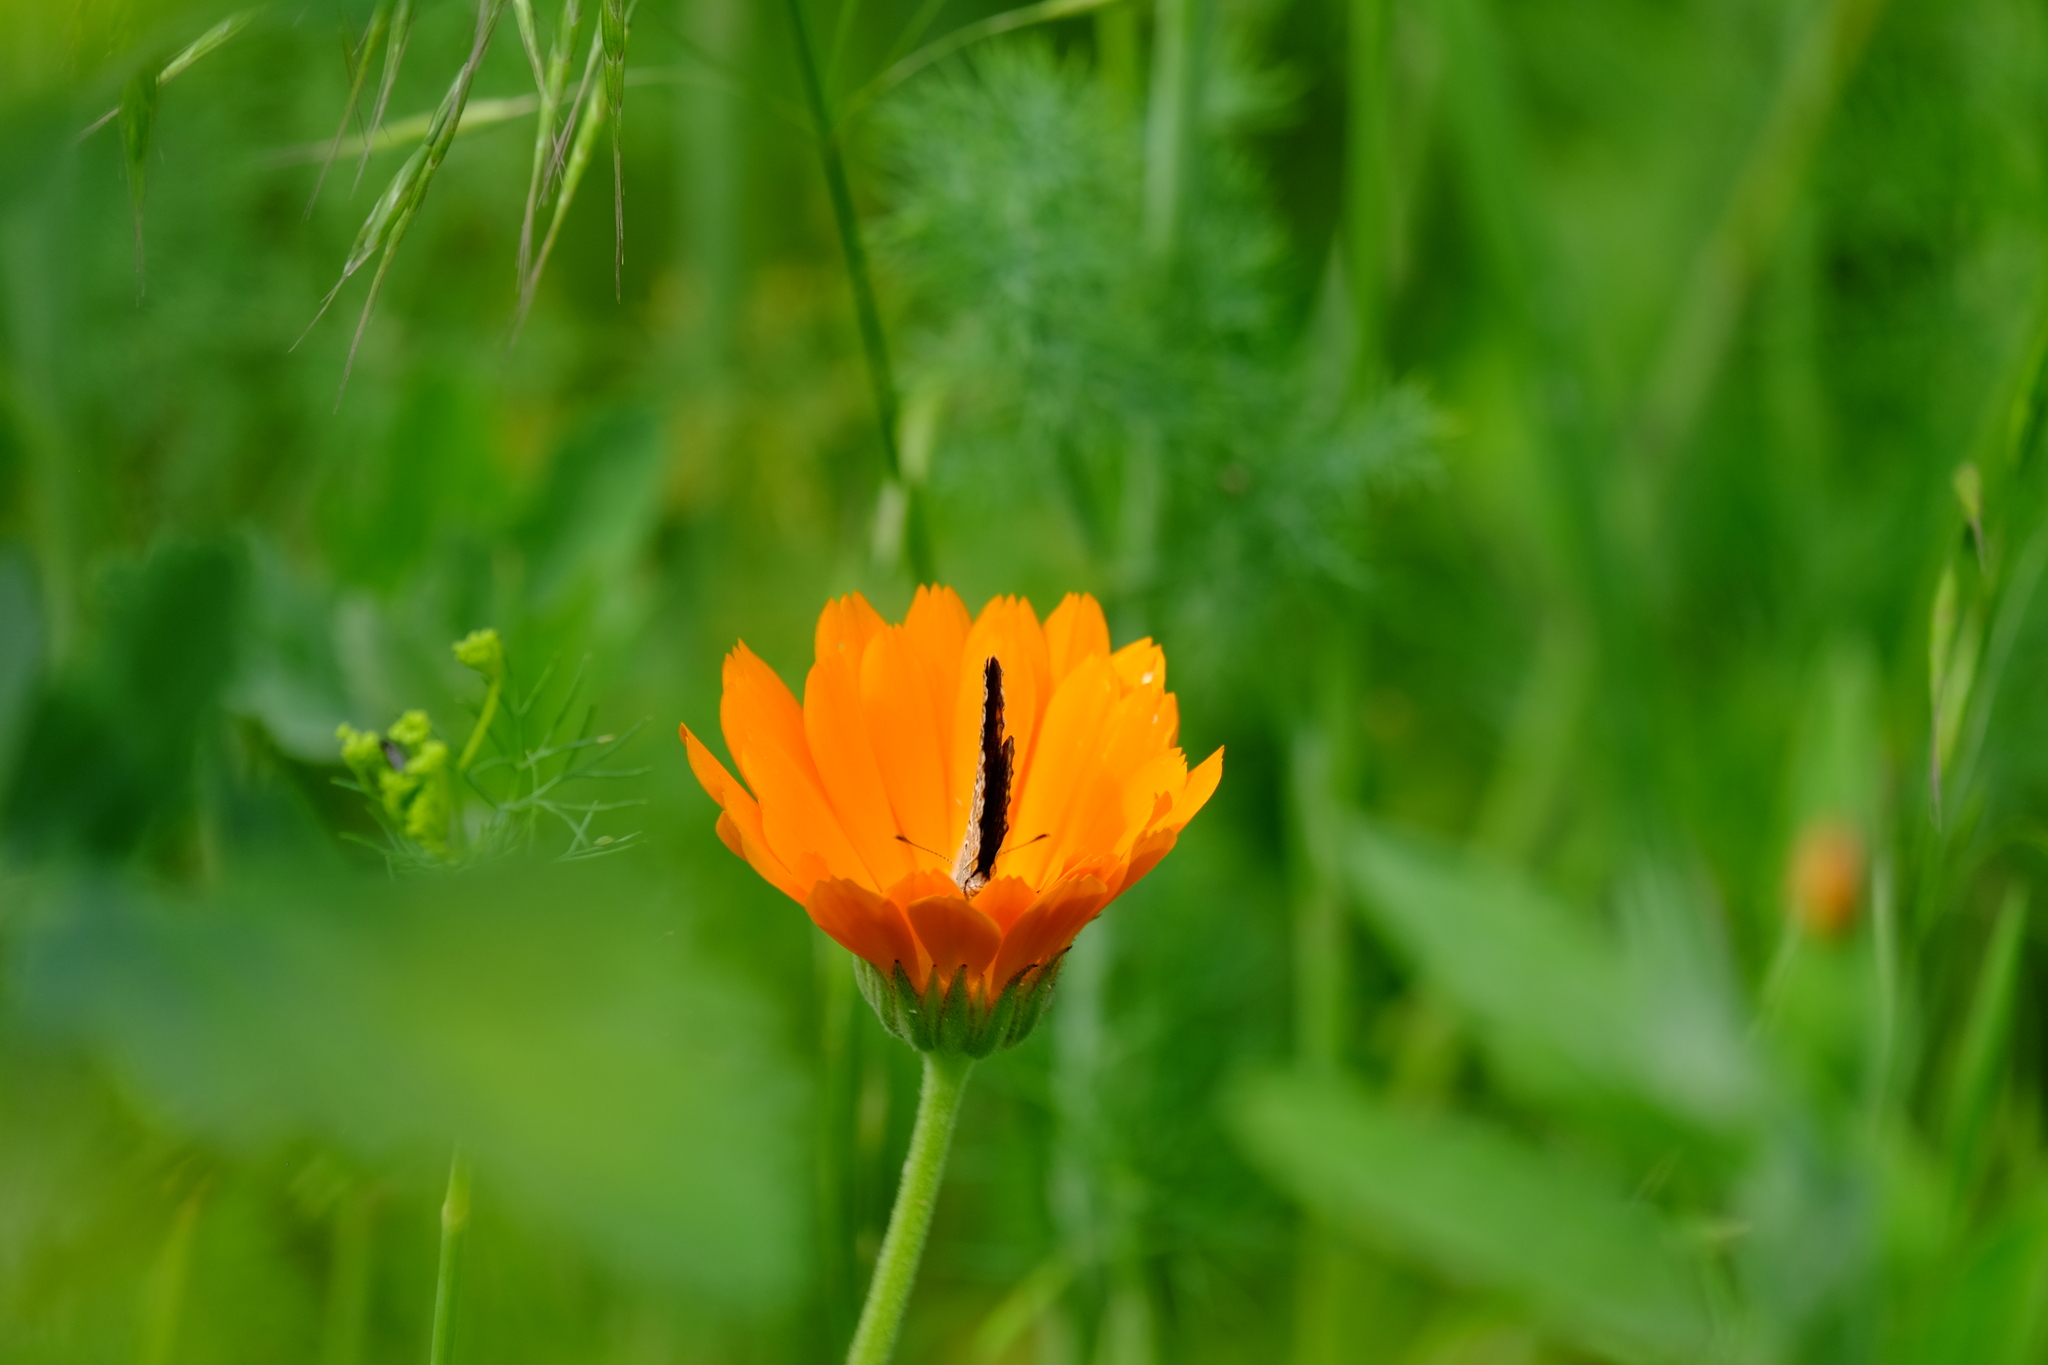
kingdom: Animalia
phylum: Arthropoda
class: Insecta
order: Lepidoptera
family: Lycaenidae
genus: Polyommatus
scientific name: Polyommatus icarus
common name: Common blue
